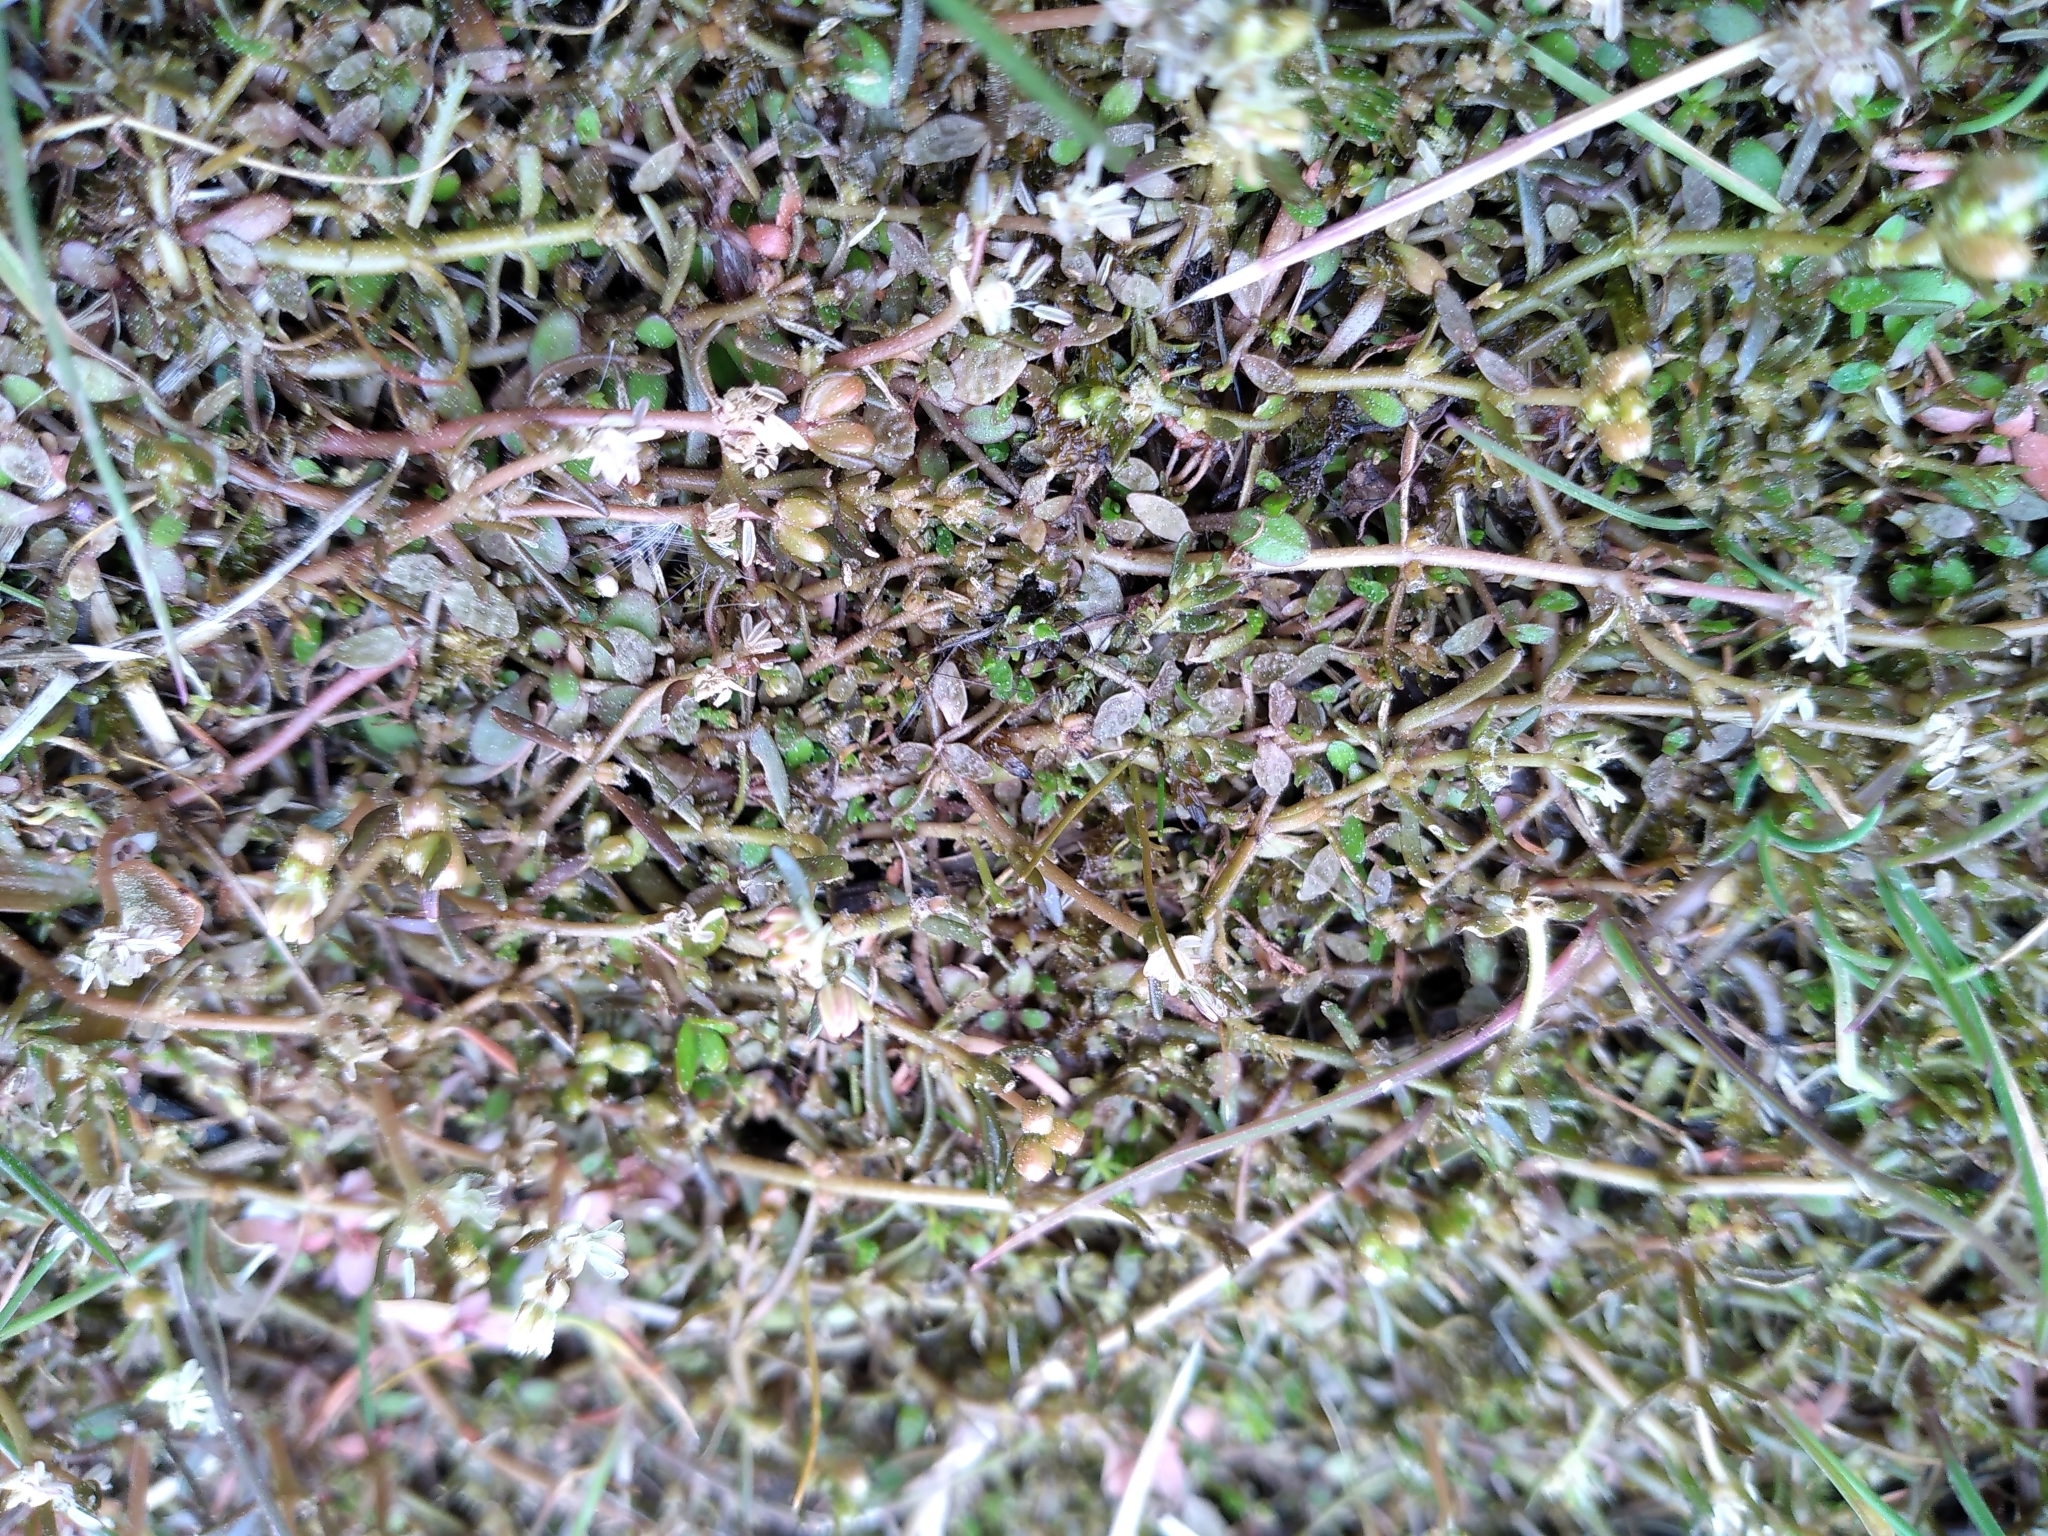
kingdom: Plantae
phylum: Tracheophyta
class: Magnoliopsida
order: Saxifragales
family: Haloragaceae
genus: Myriophyllum
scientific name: Myriophyllum pedunculatum
